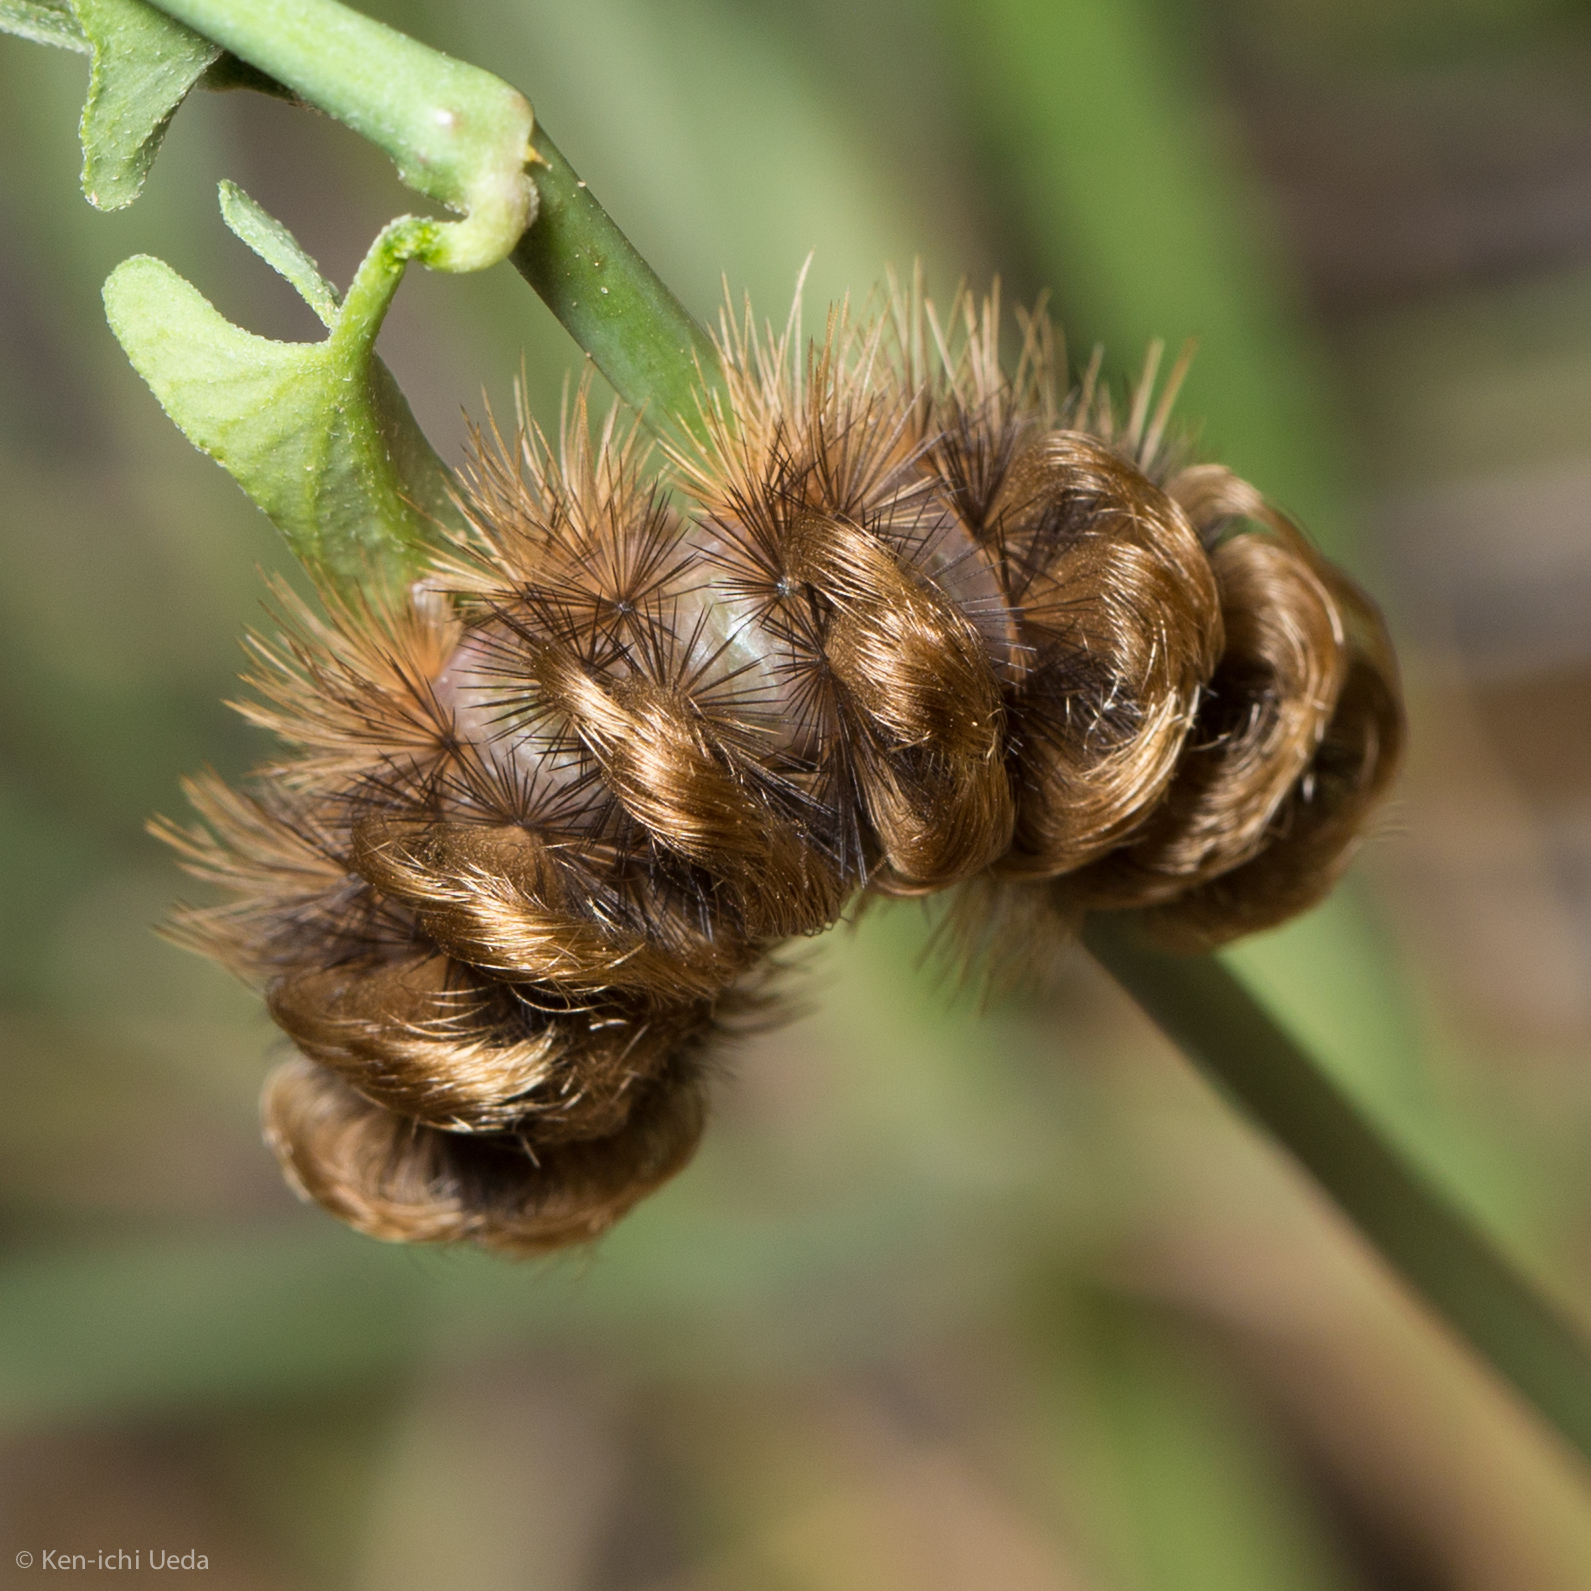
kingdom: Animalia
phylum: Arthropoda
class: Insecta
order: Lepidoptera
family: Erebidae
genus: Ectypia
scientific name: Ectypia clio
